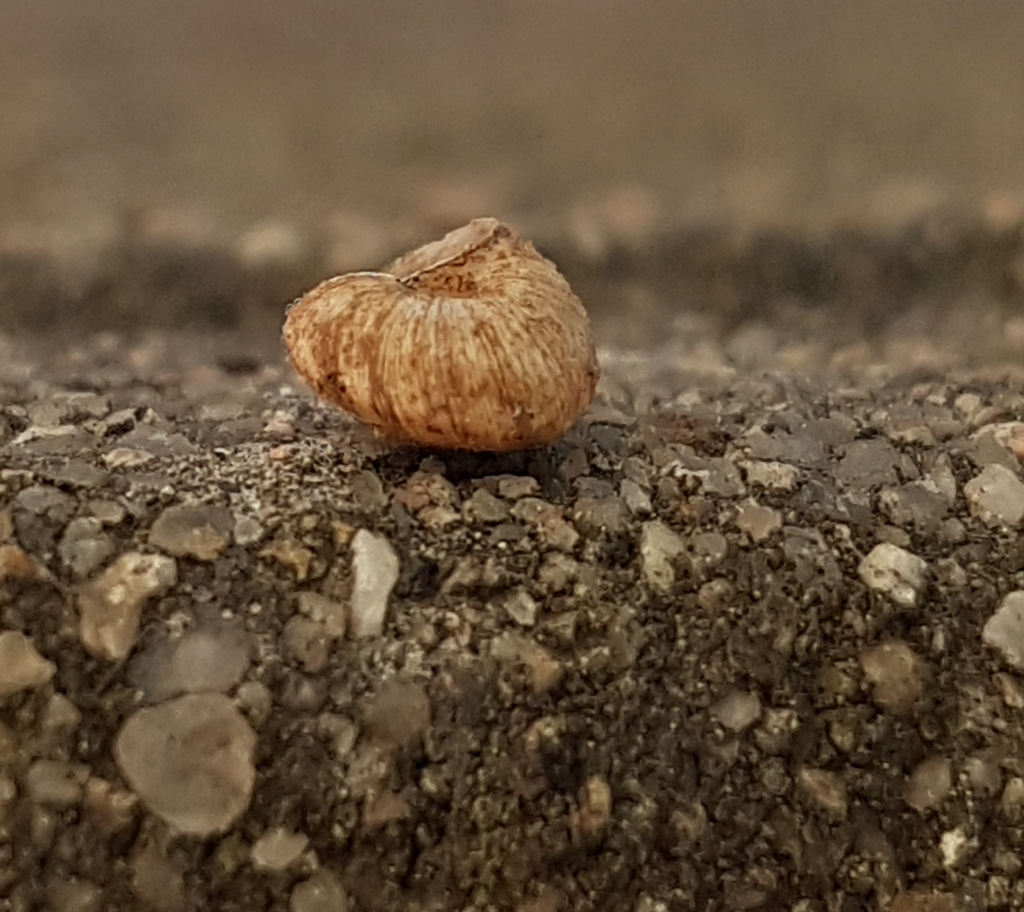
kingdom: Animalia
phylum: Mollusca
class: Gastropoda
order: Stylommatophora
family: Geomitridae
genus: Xerotricha
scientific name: Xerotricha conspurcata
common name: Snail
